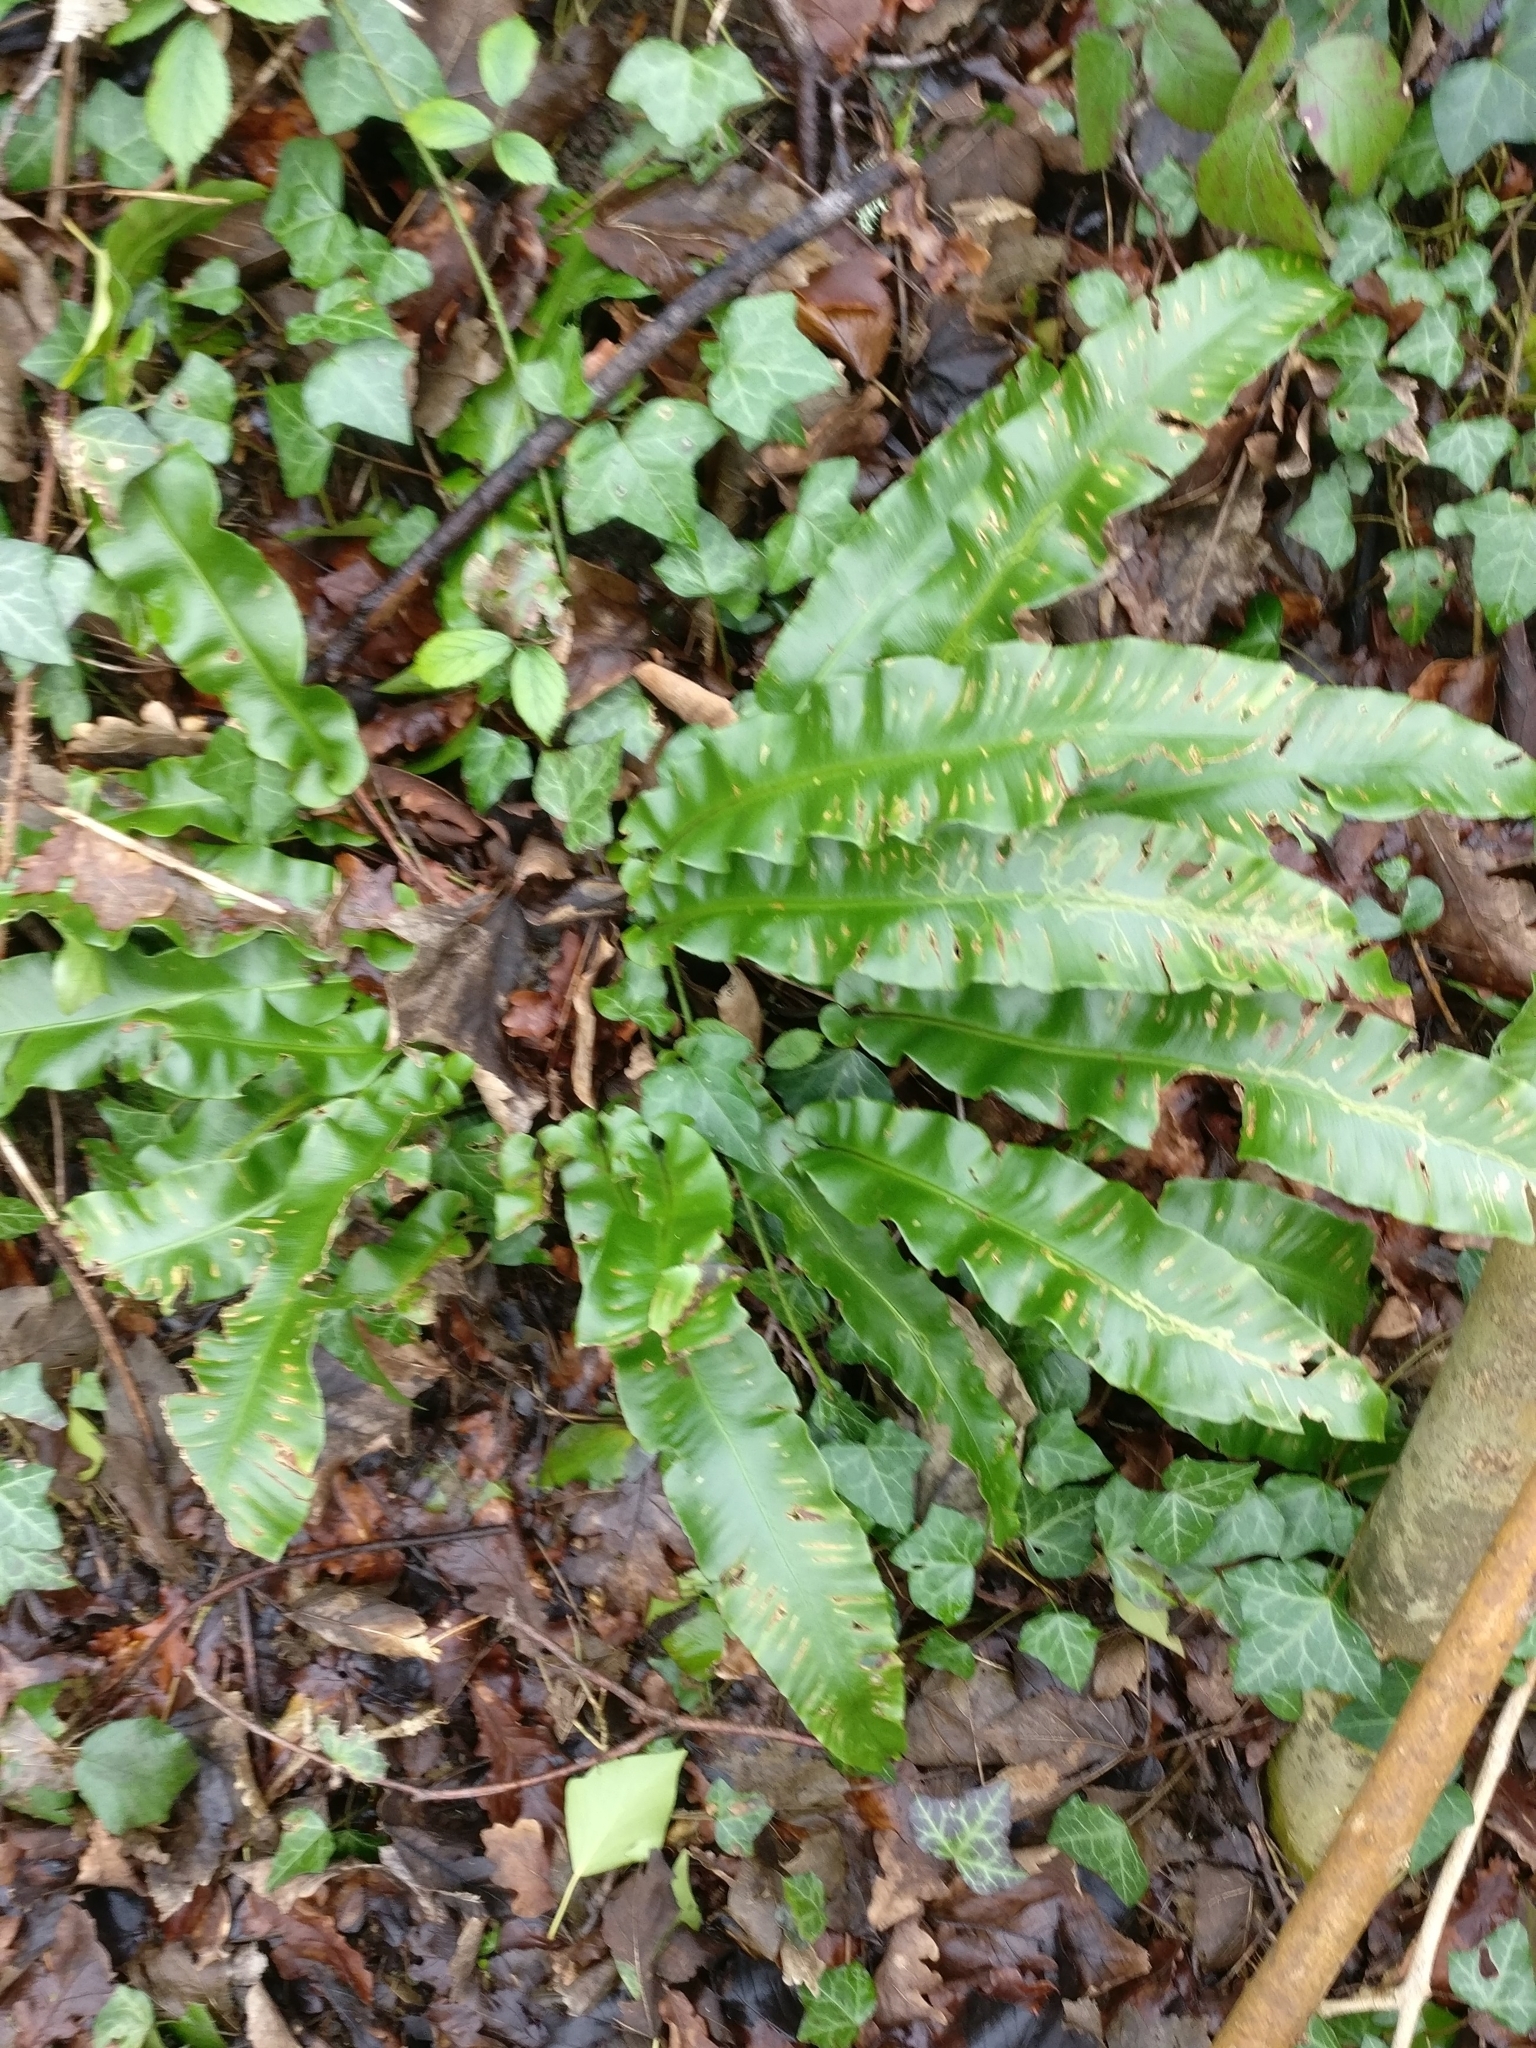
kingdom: Plantae
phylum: Tracheophyta
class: Polypodiopsida
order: Polypodiales
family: Aspleniaceae
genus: Asplenium
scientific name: Asplenium scolopendrium
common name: Hart's-tongue fern
